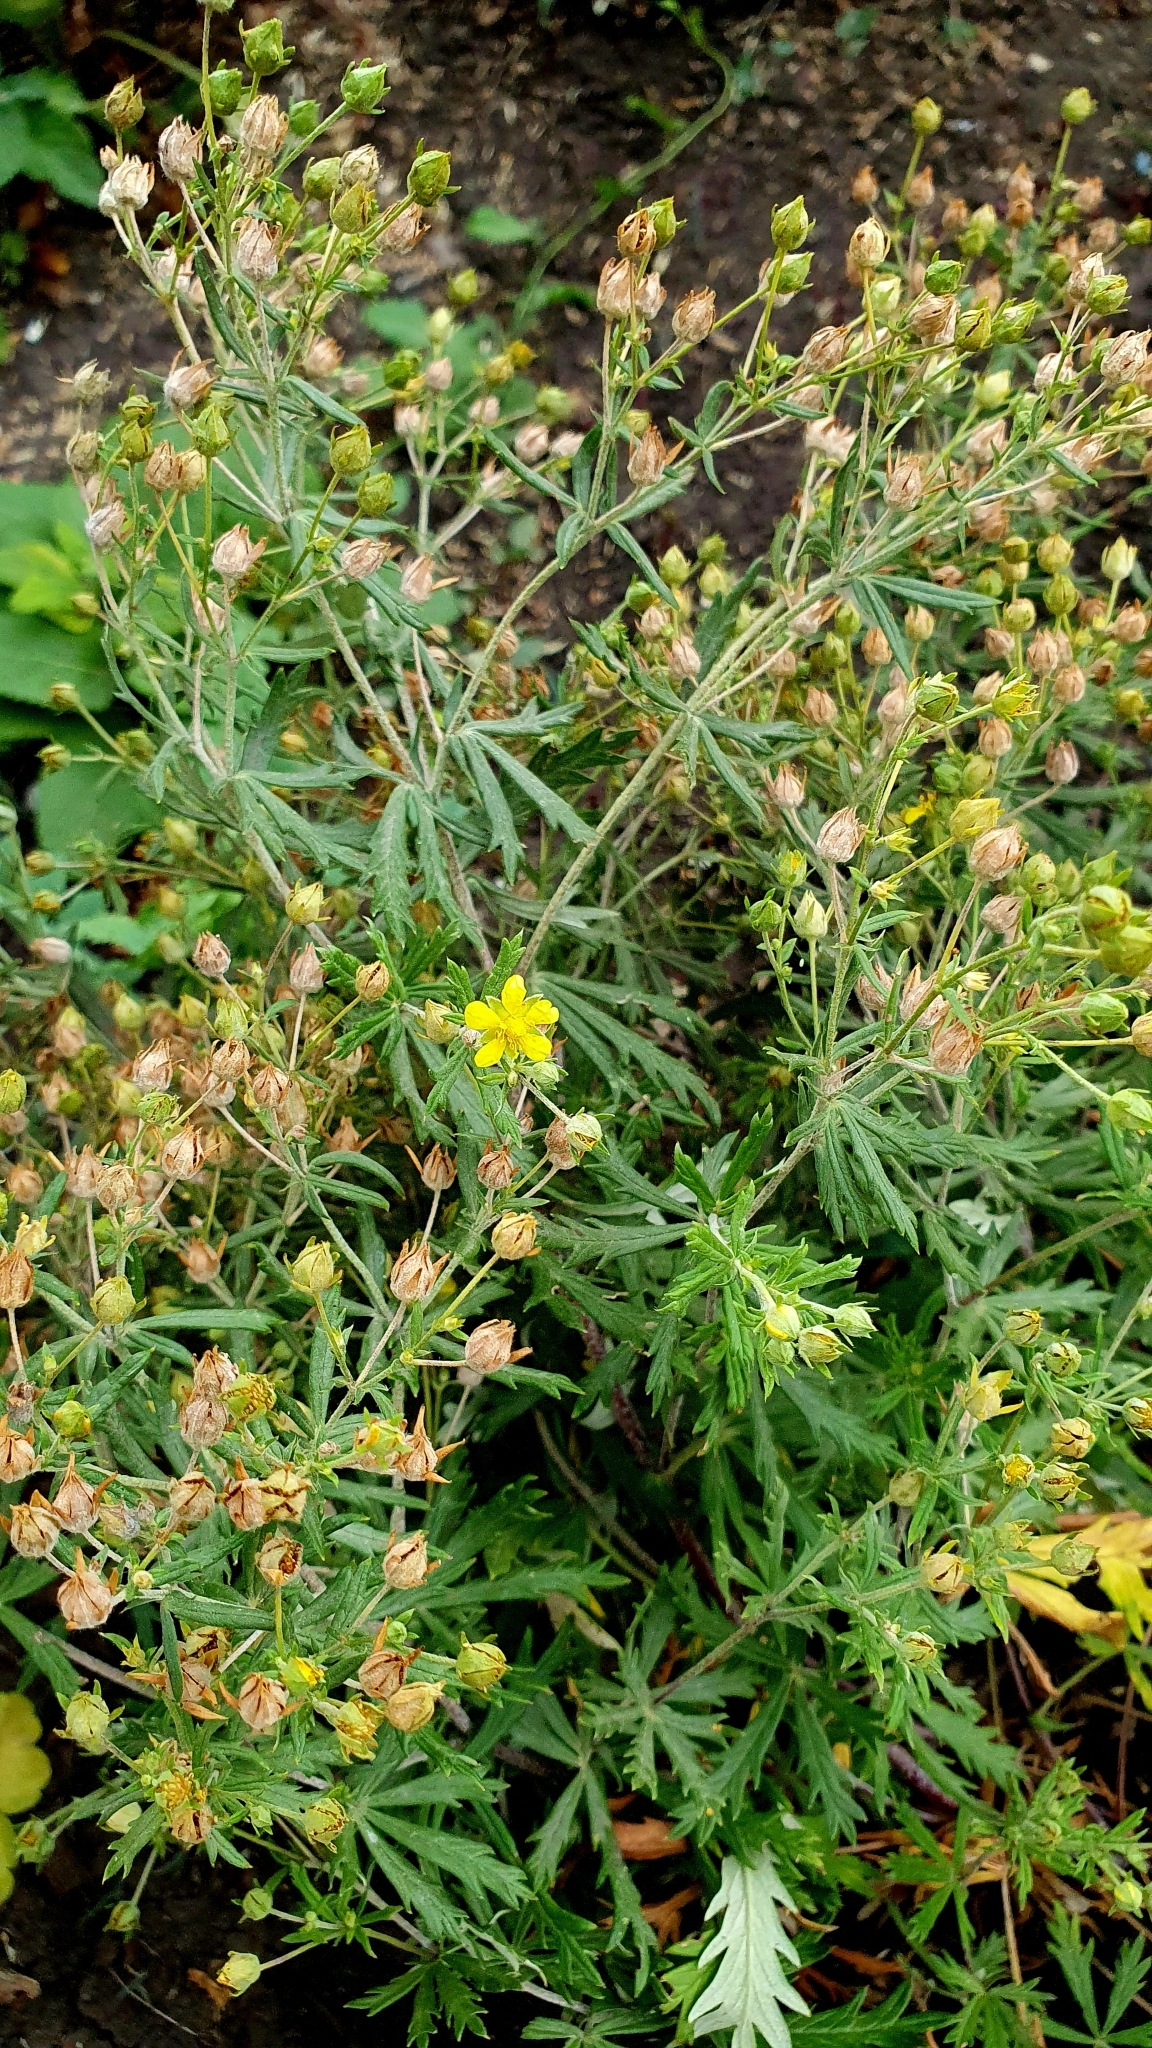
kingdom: Plantae
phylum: Tracheophyta
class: Magnoliopsida
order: Rosales
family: Rosaceae
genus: Potentilla
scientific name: Potentilla argentea
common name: Hoary cinquefoil
